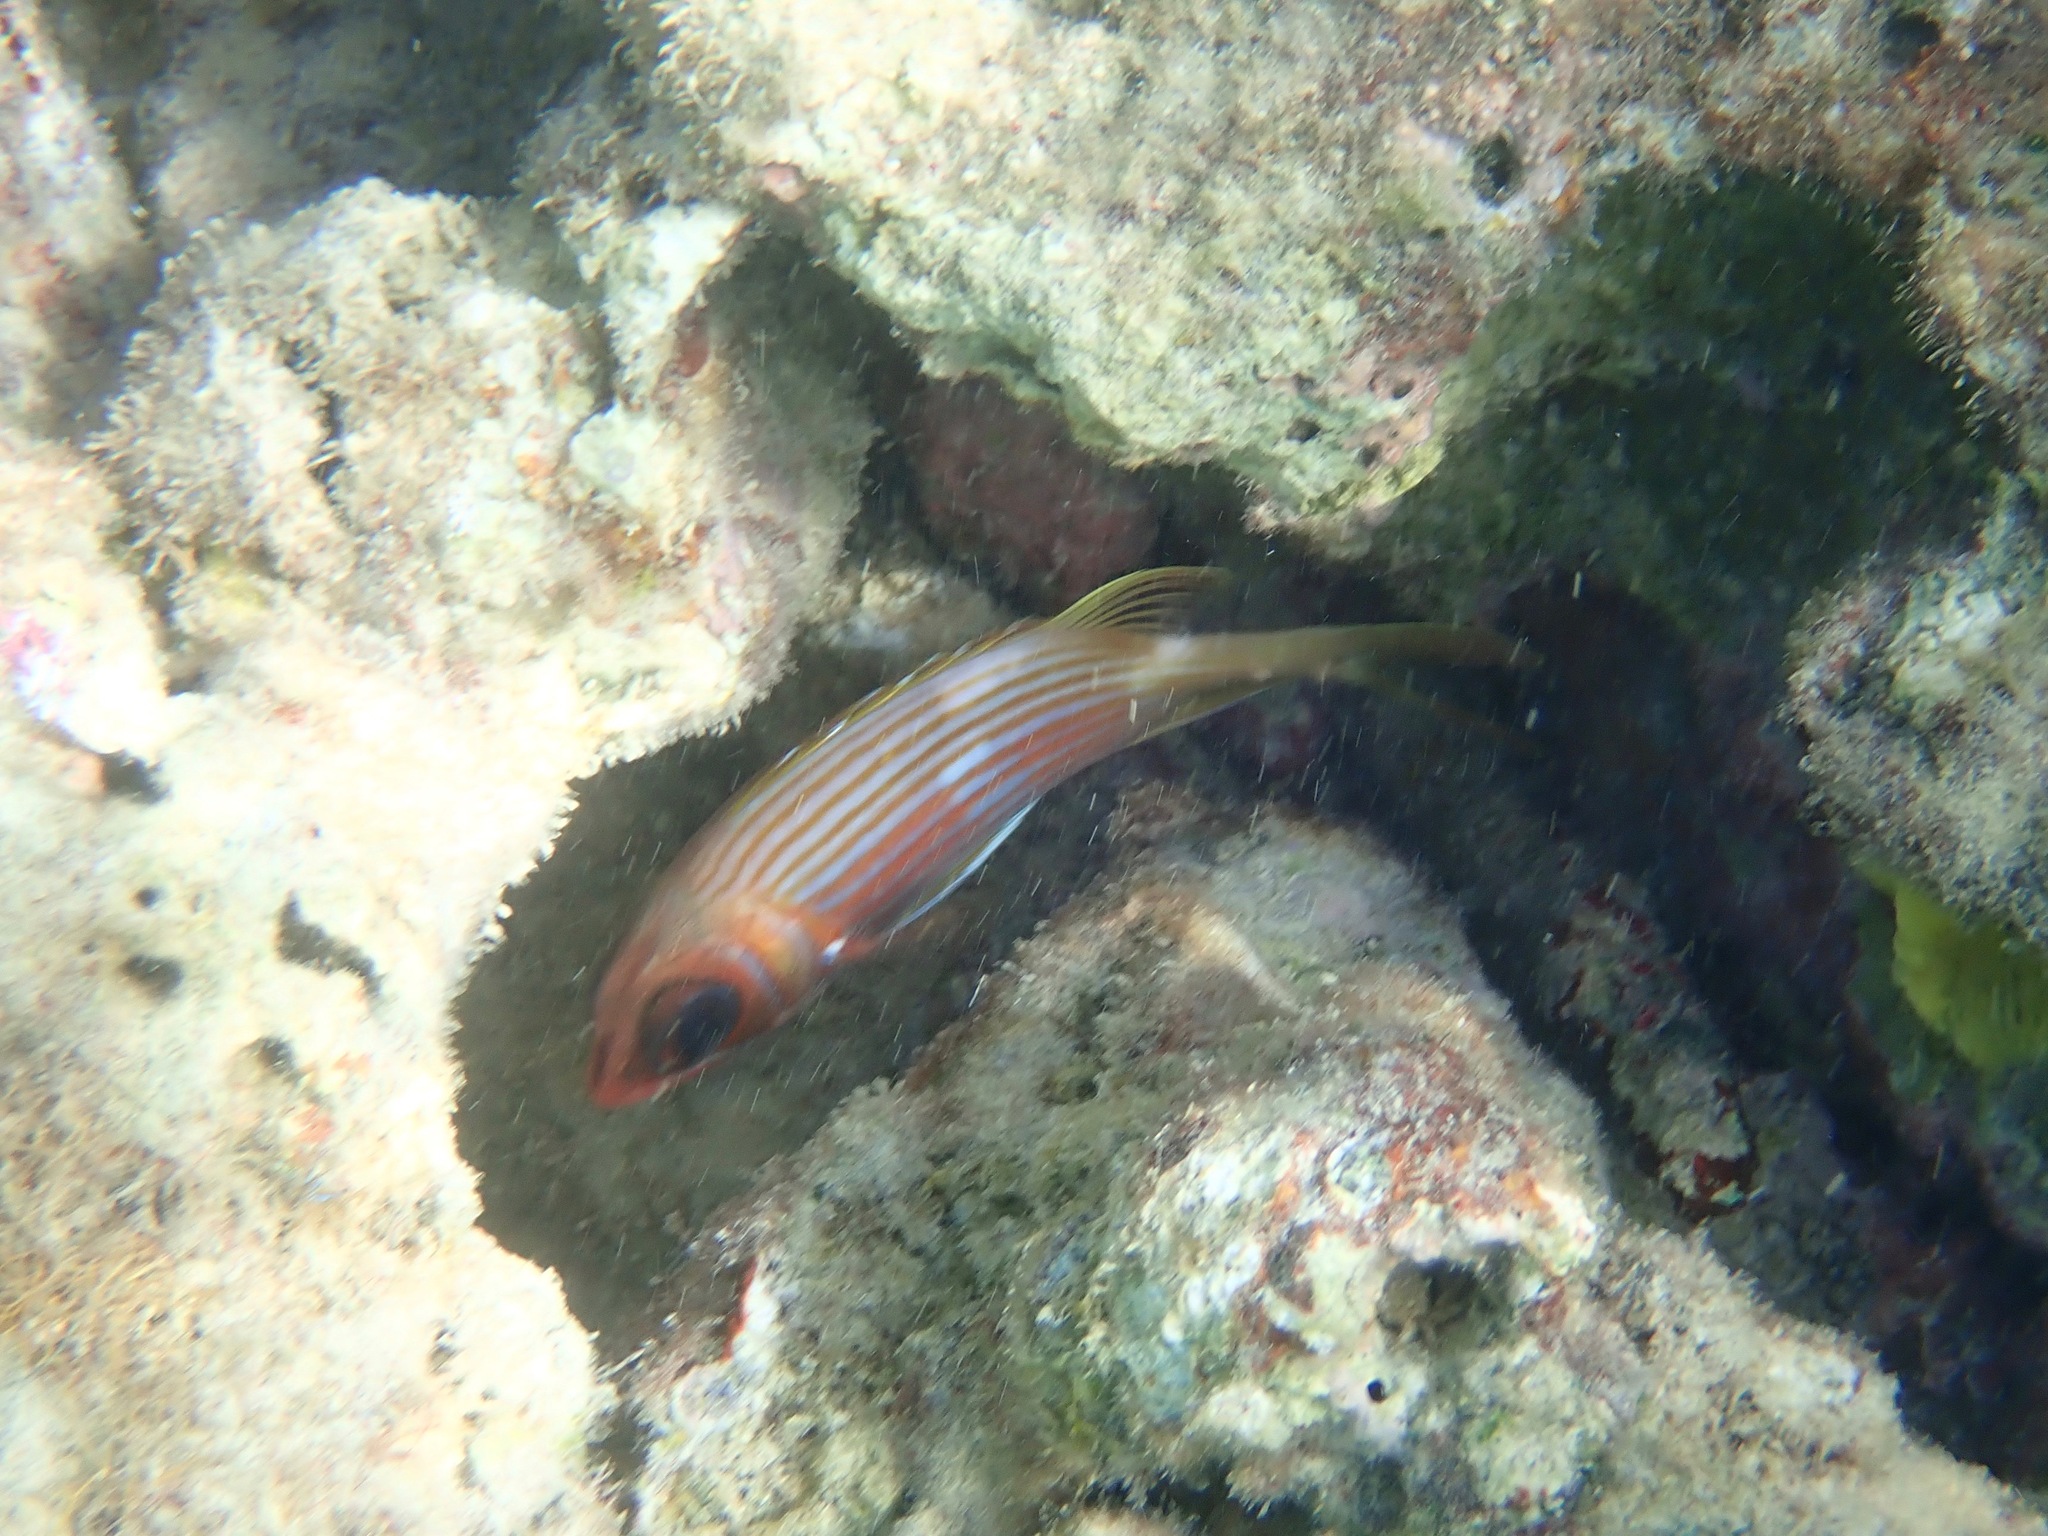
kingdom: Animalia
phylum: Chordata
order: Beryciformes
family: Holocentridae
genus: Holocentrus
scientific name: Holocentrus rufus
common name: Longspine squirrelfish
